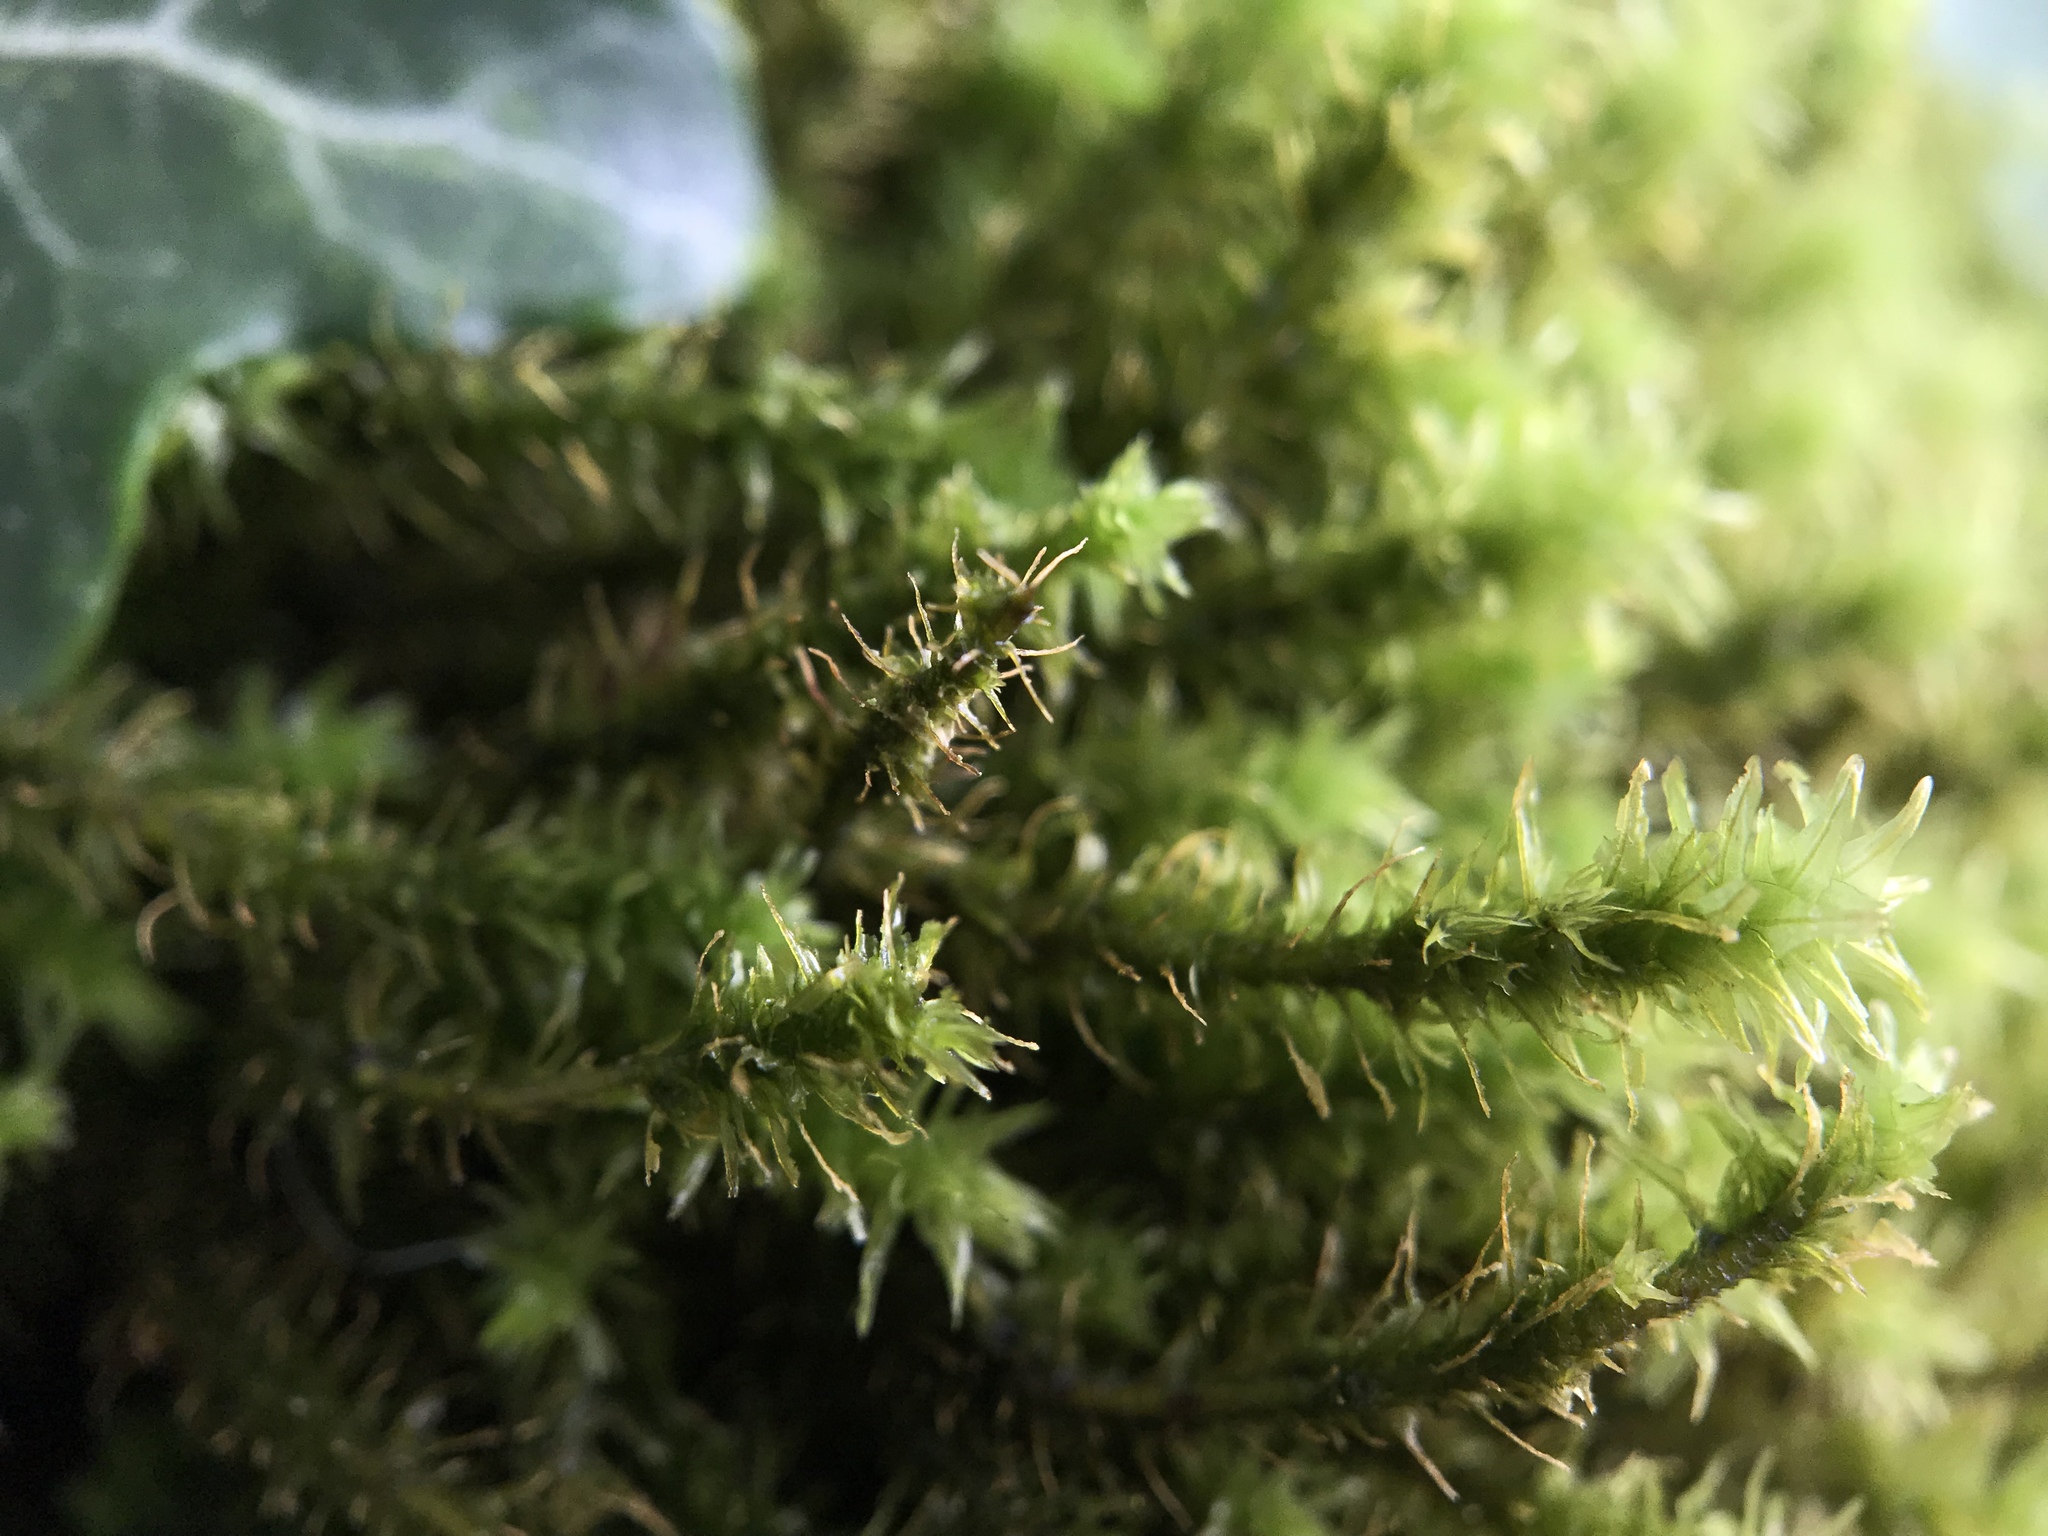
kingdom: Plantae
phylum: Bryophyta
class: Bryopsida
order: Hypnales
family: Anomodontaceae
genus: Anomodon
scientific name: Anomodon viticulosus
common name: Tall anomodon
